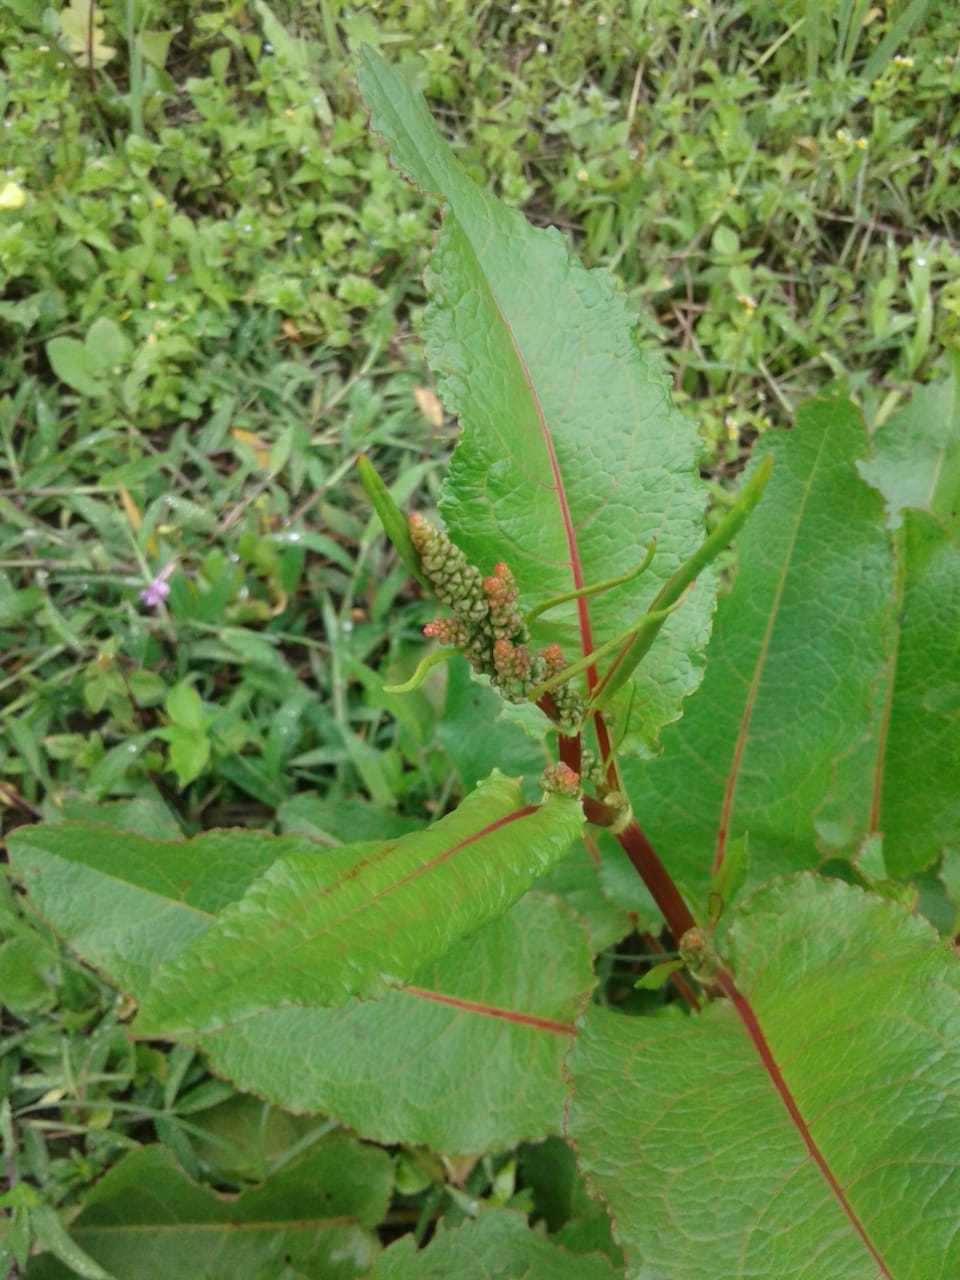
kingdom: Plantae
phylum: Tracheophyta
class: Magnoliopsida
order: Caryophyllales
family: Polygonaceae
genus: Rumex
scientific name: Rumex obtusifolius
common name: Bitter dock
